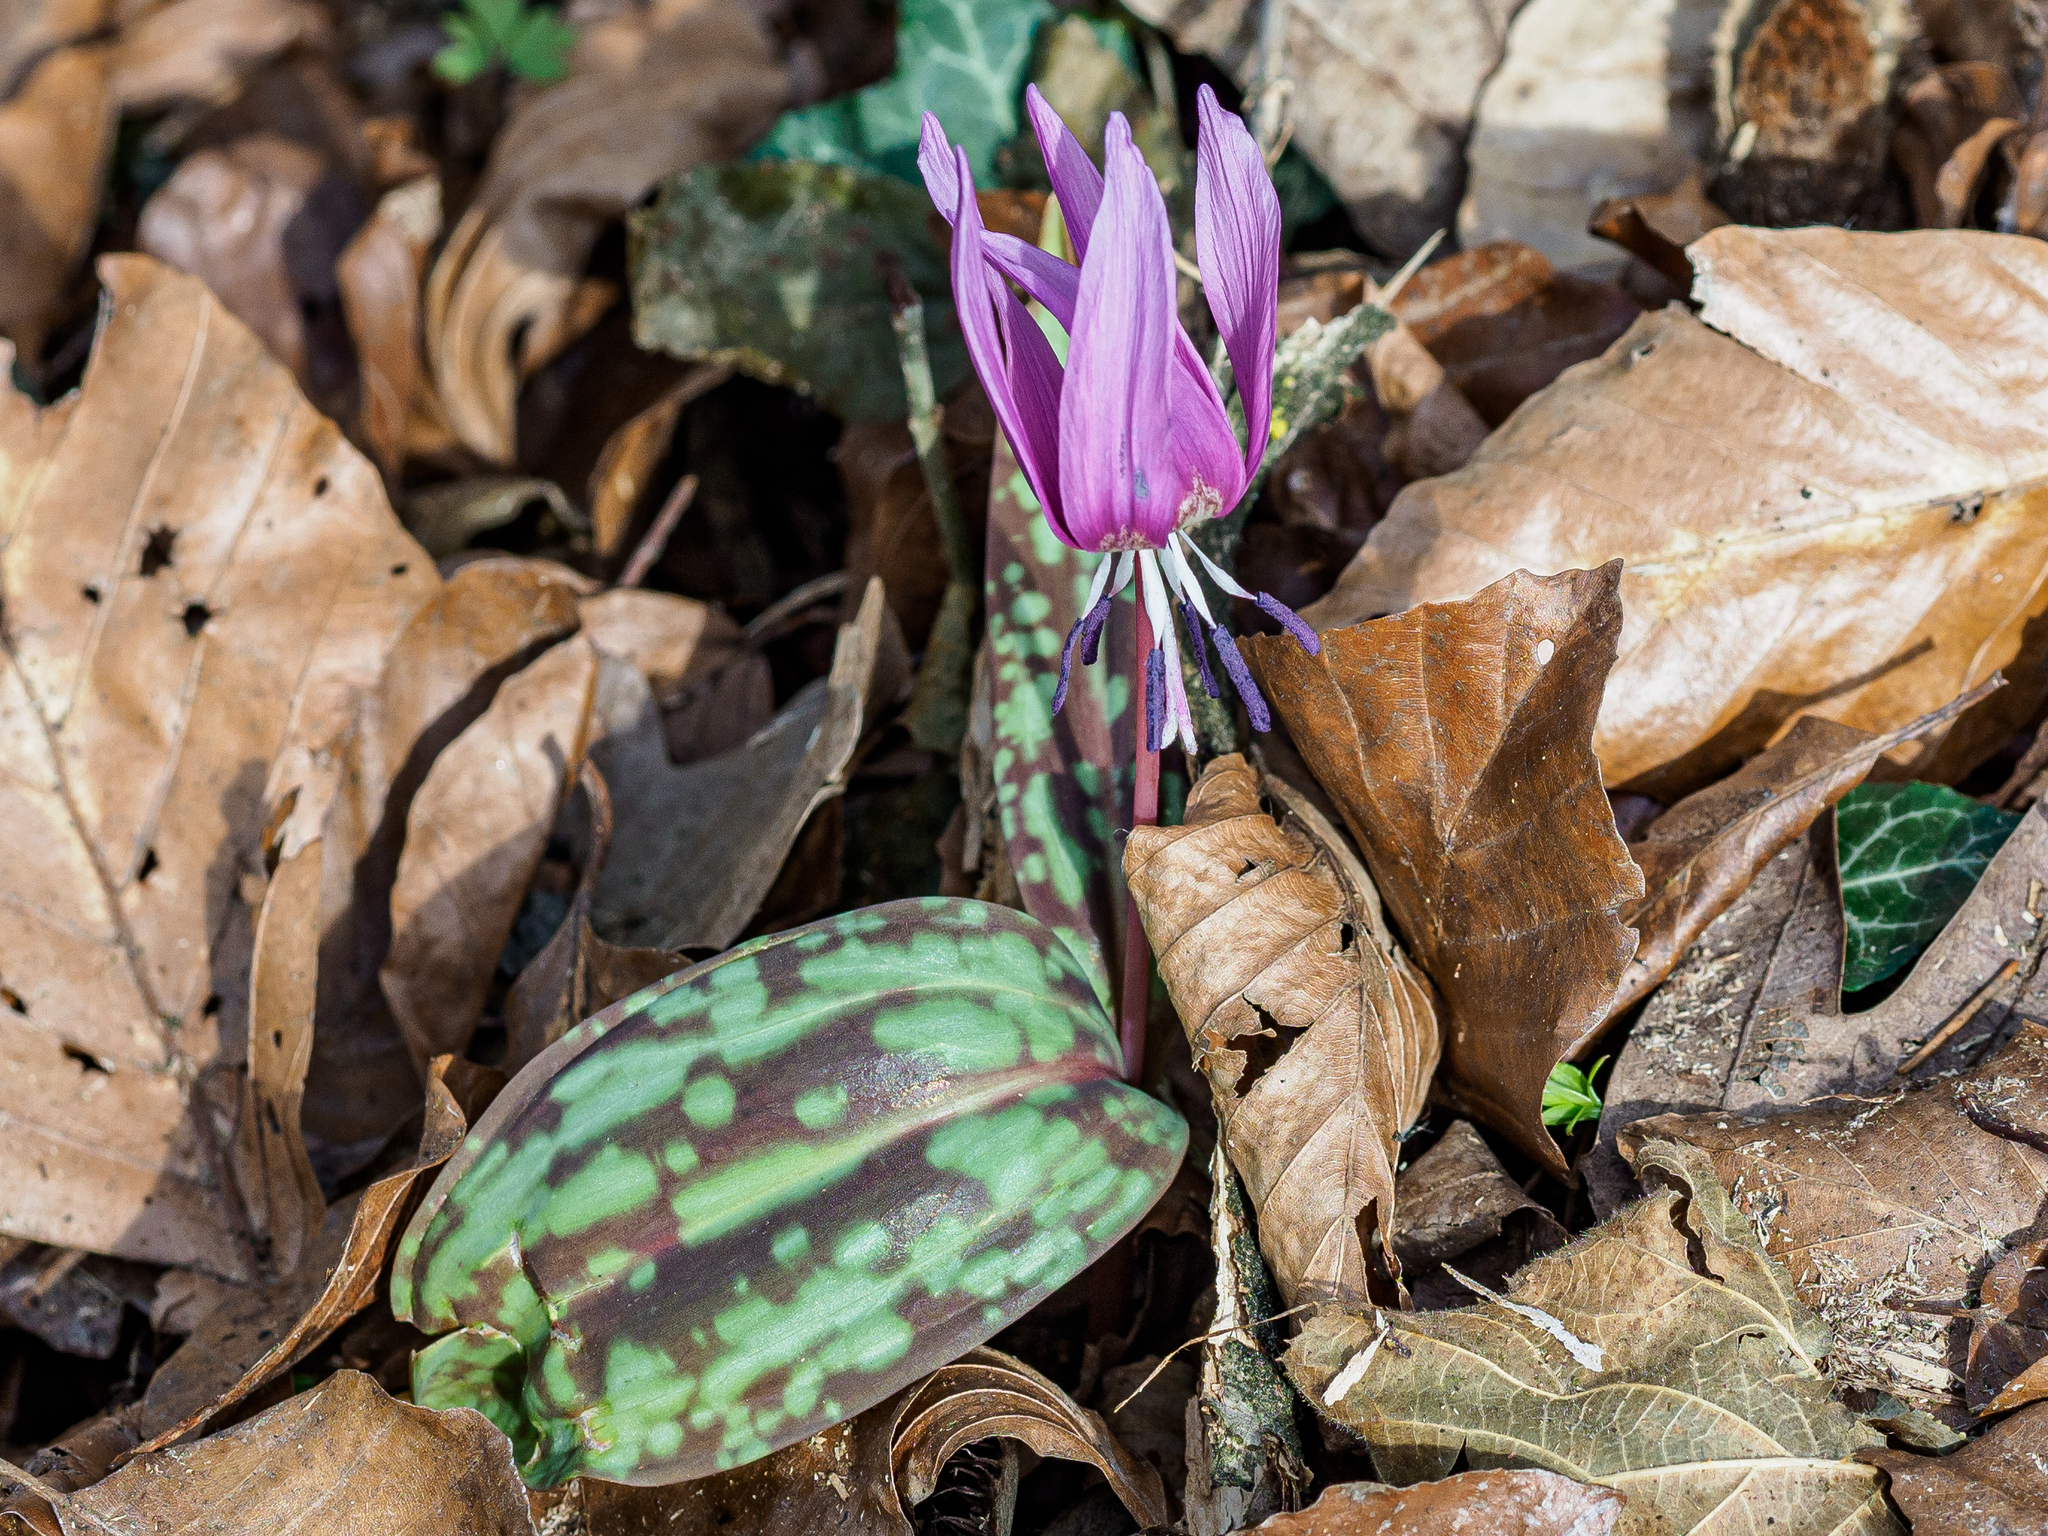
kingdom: Plantae
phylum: Tracheophyta
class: Liliopsida
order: Liliales
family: Liliaceae
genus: Erythronium
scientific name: Erythronium dens-canis
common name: Dog's-tooth-violet
